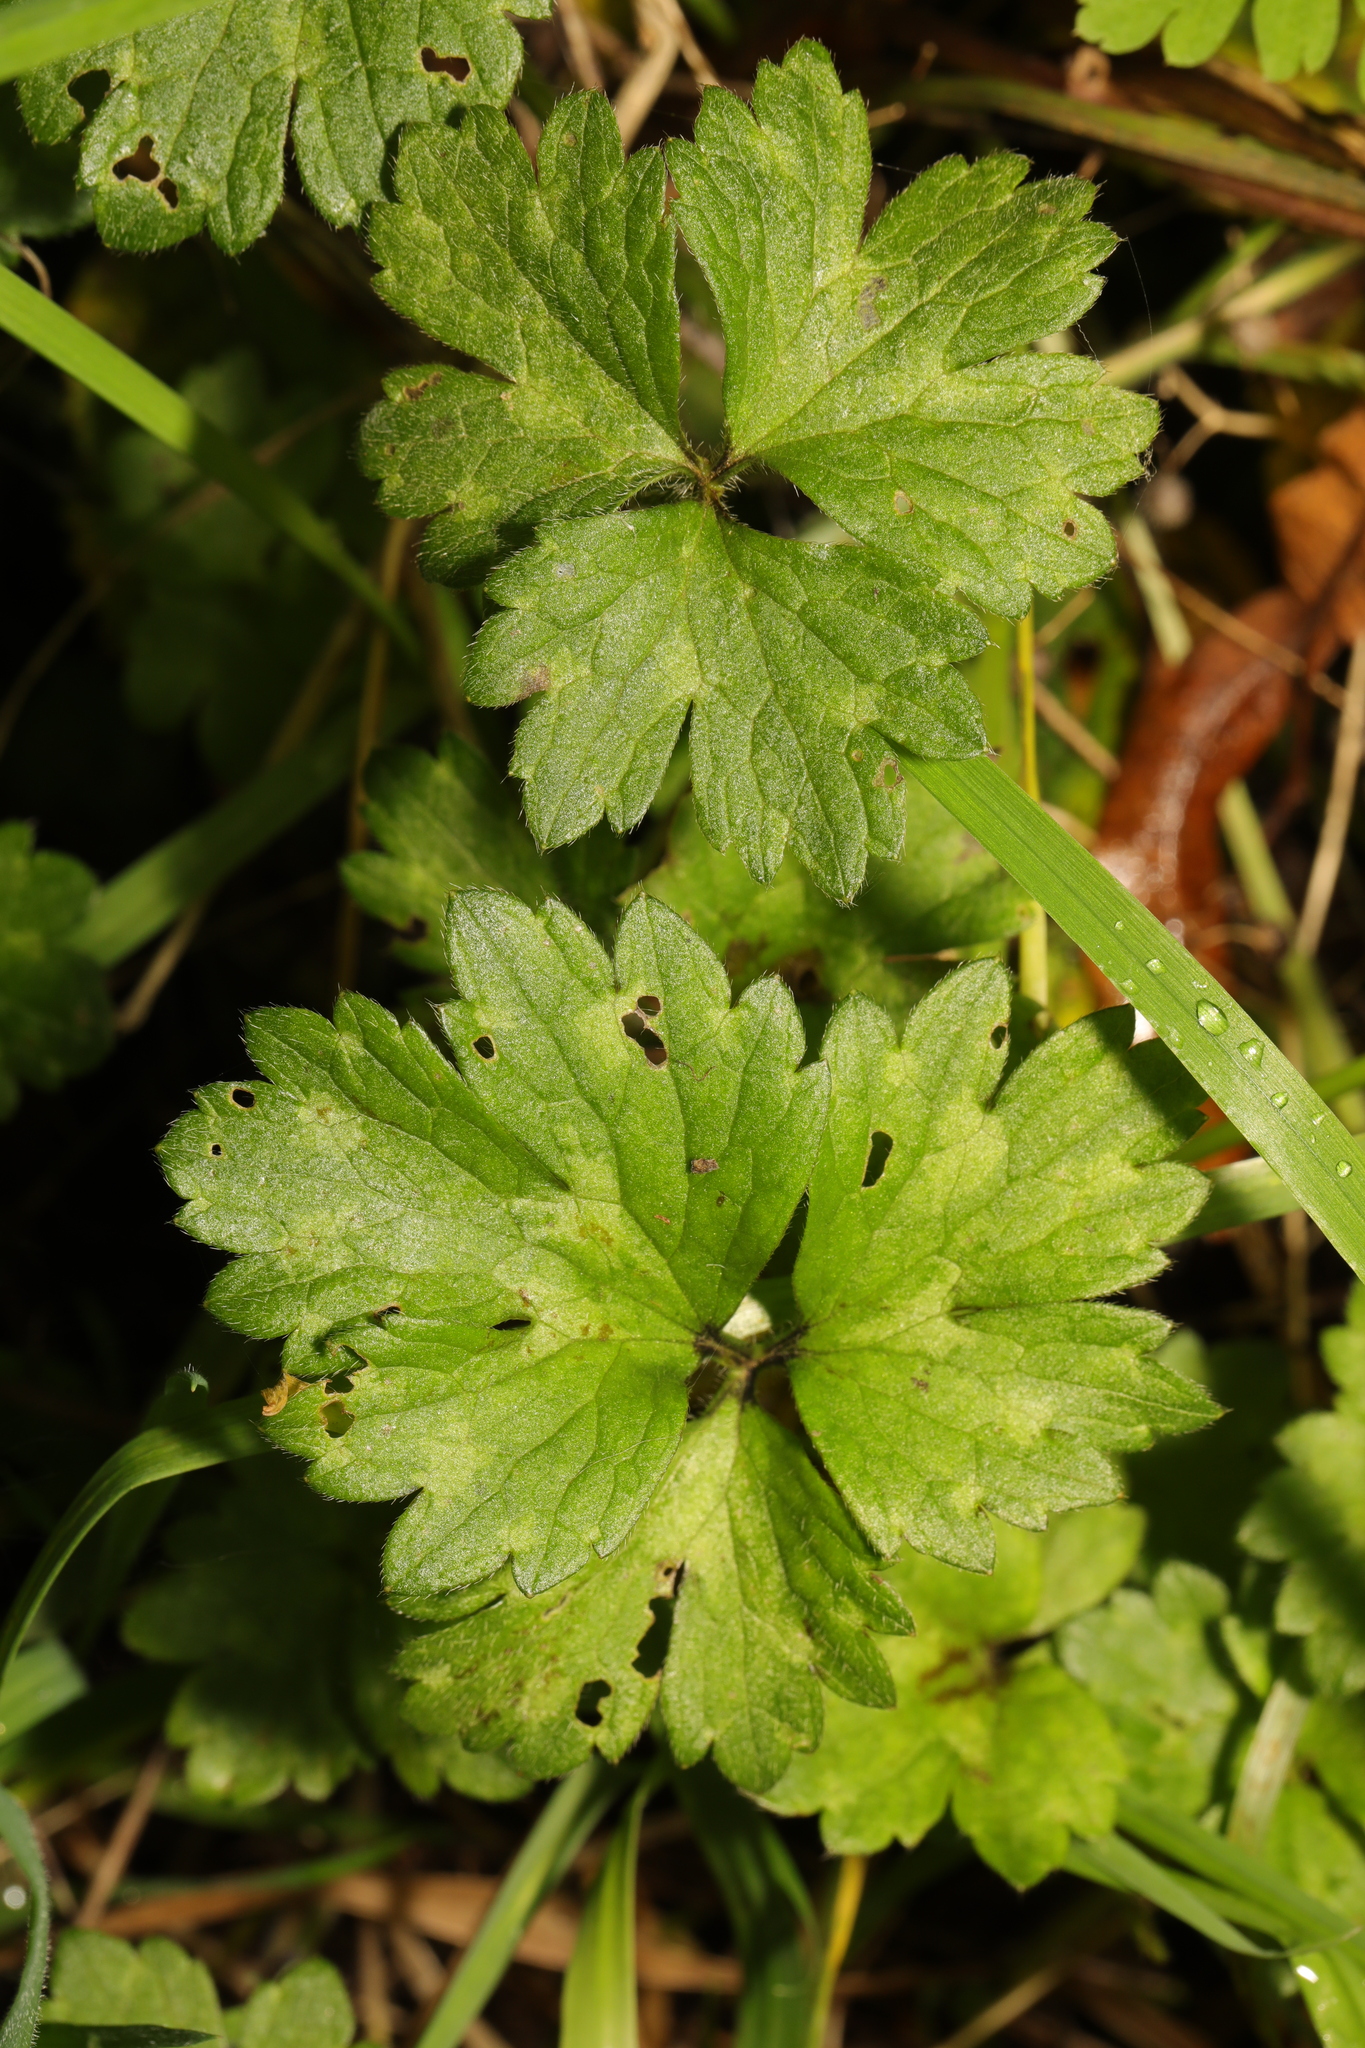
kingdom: Plantae
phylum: Tracheophyta
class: Magnoliopsida
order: Ranunculales
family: Ranunculaceae
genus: Ranunculus
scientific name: Ranunculus repens
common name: Creeping buttercup
